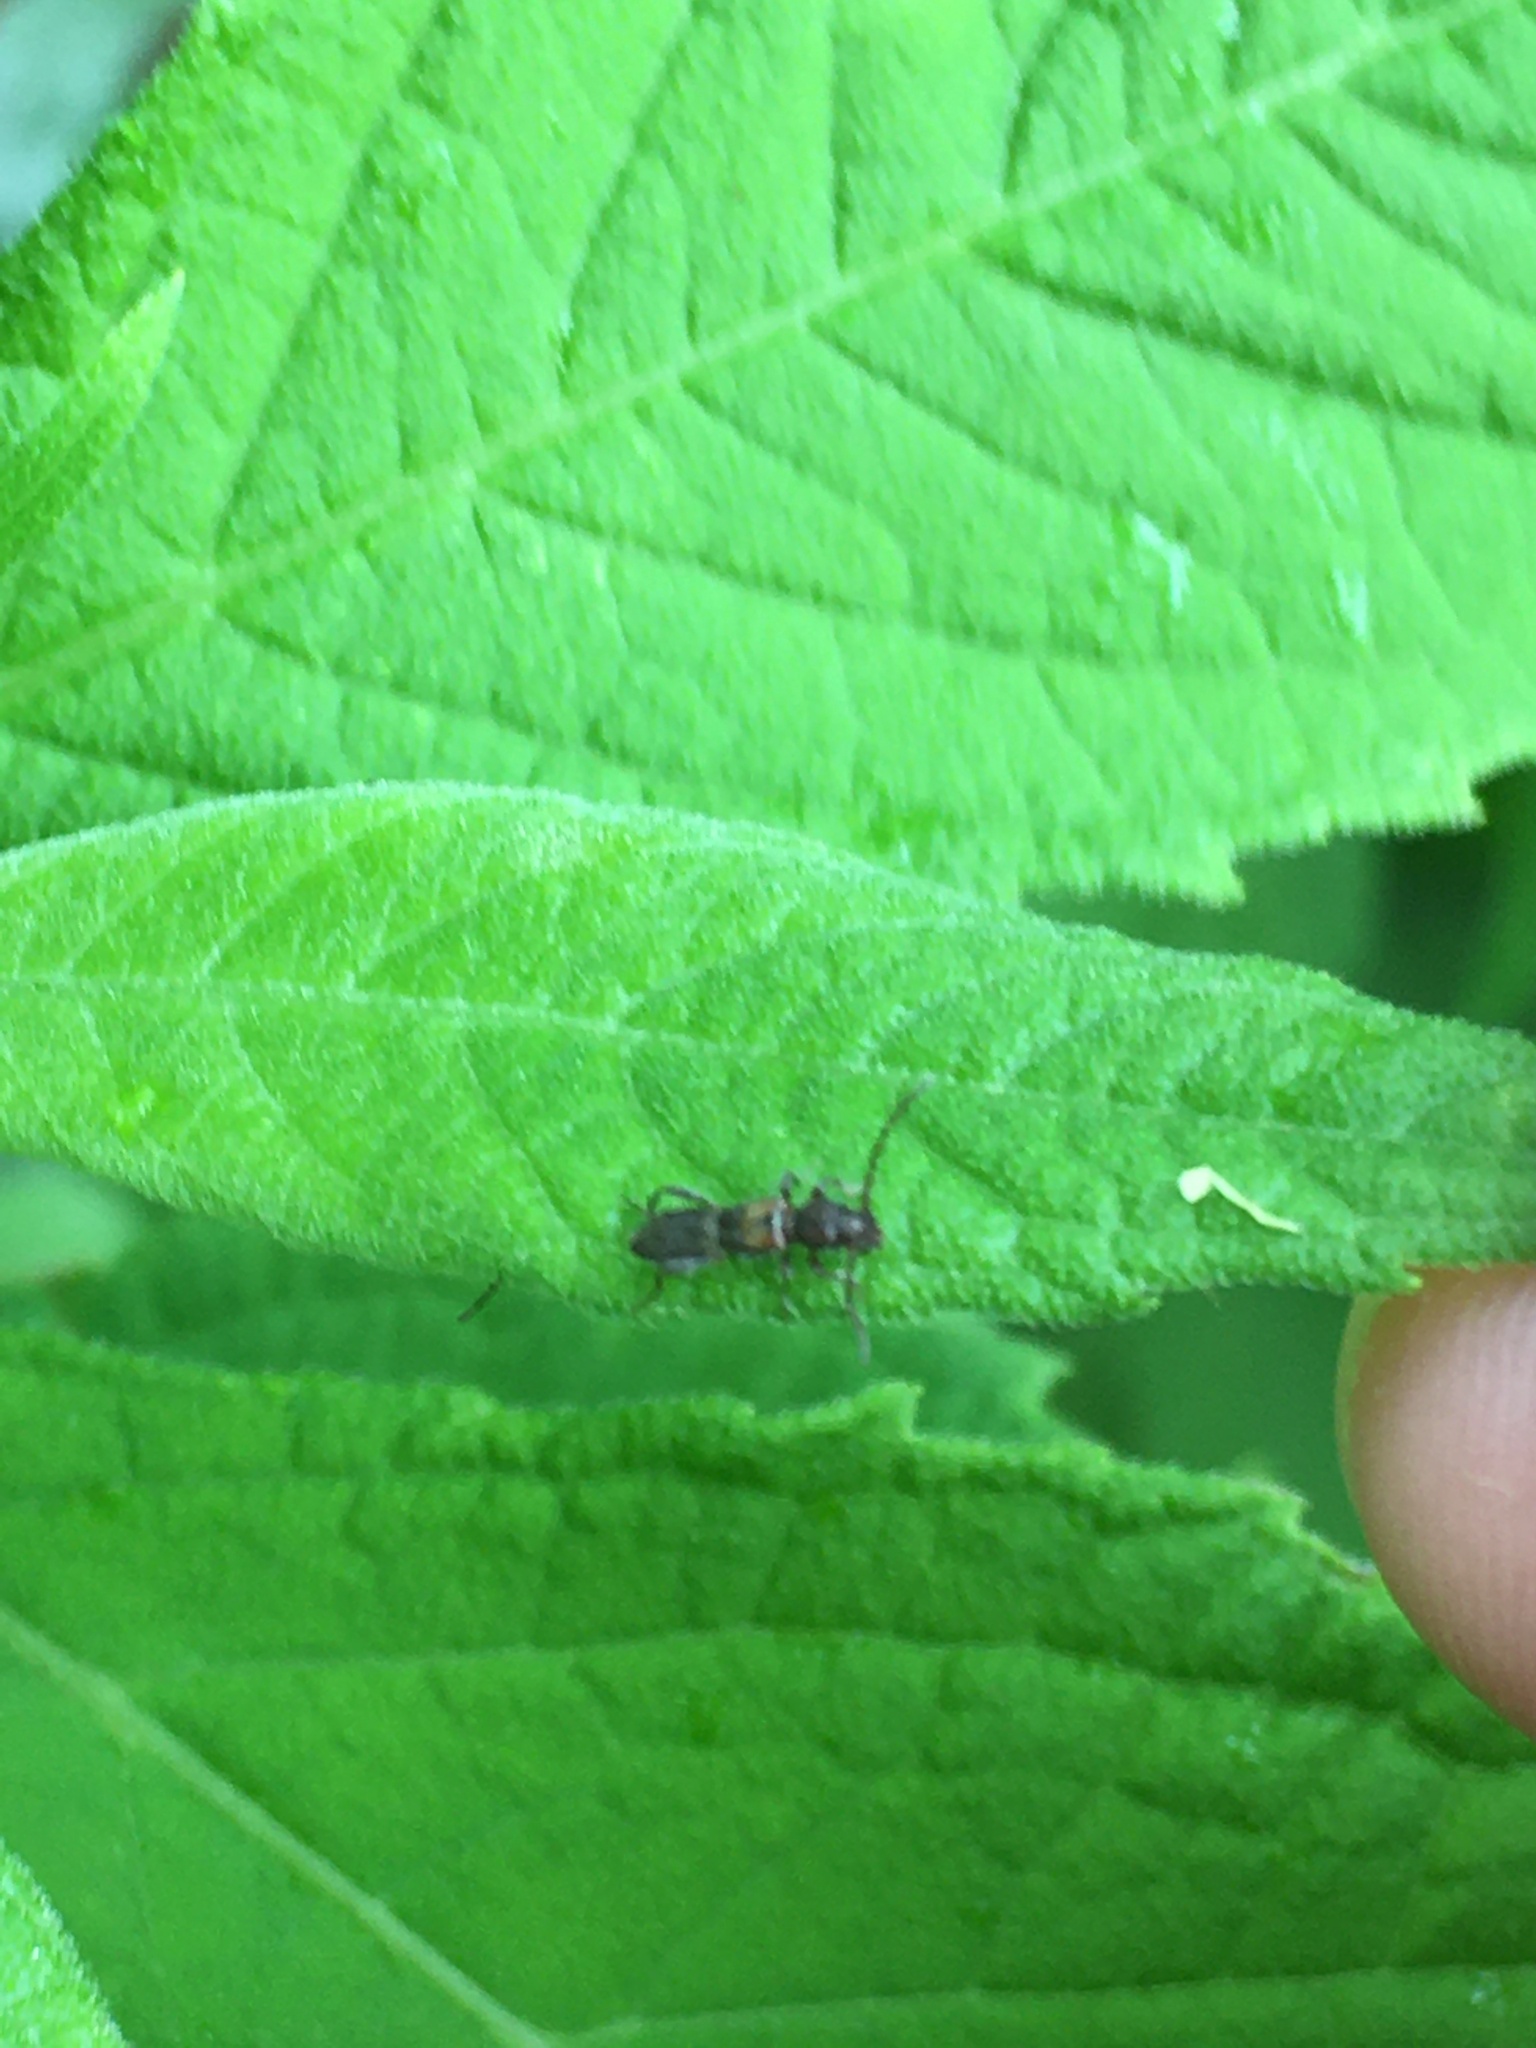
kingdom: Animalia
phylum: Arthropoda
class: Insecta
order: Coleoptera
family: Cerambycidae
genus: Molorchus
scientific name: Molorchus bimaculatus
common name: Bimaculate longhorn beetle
